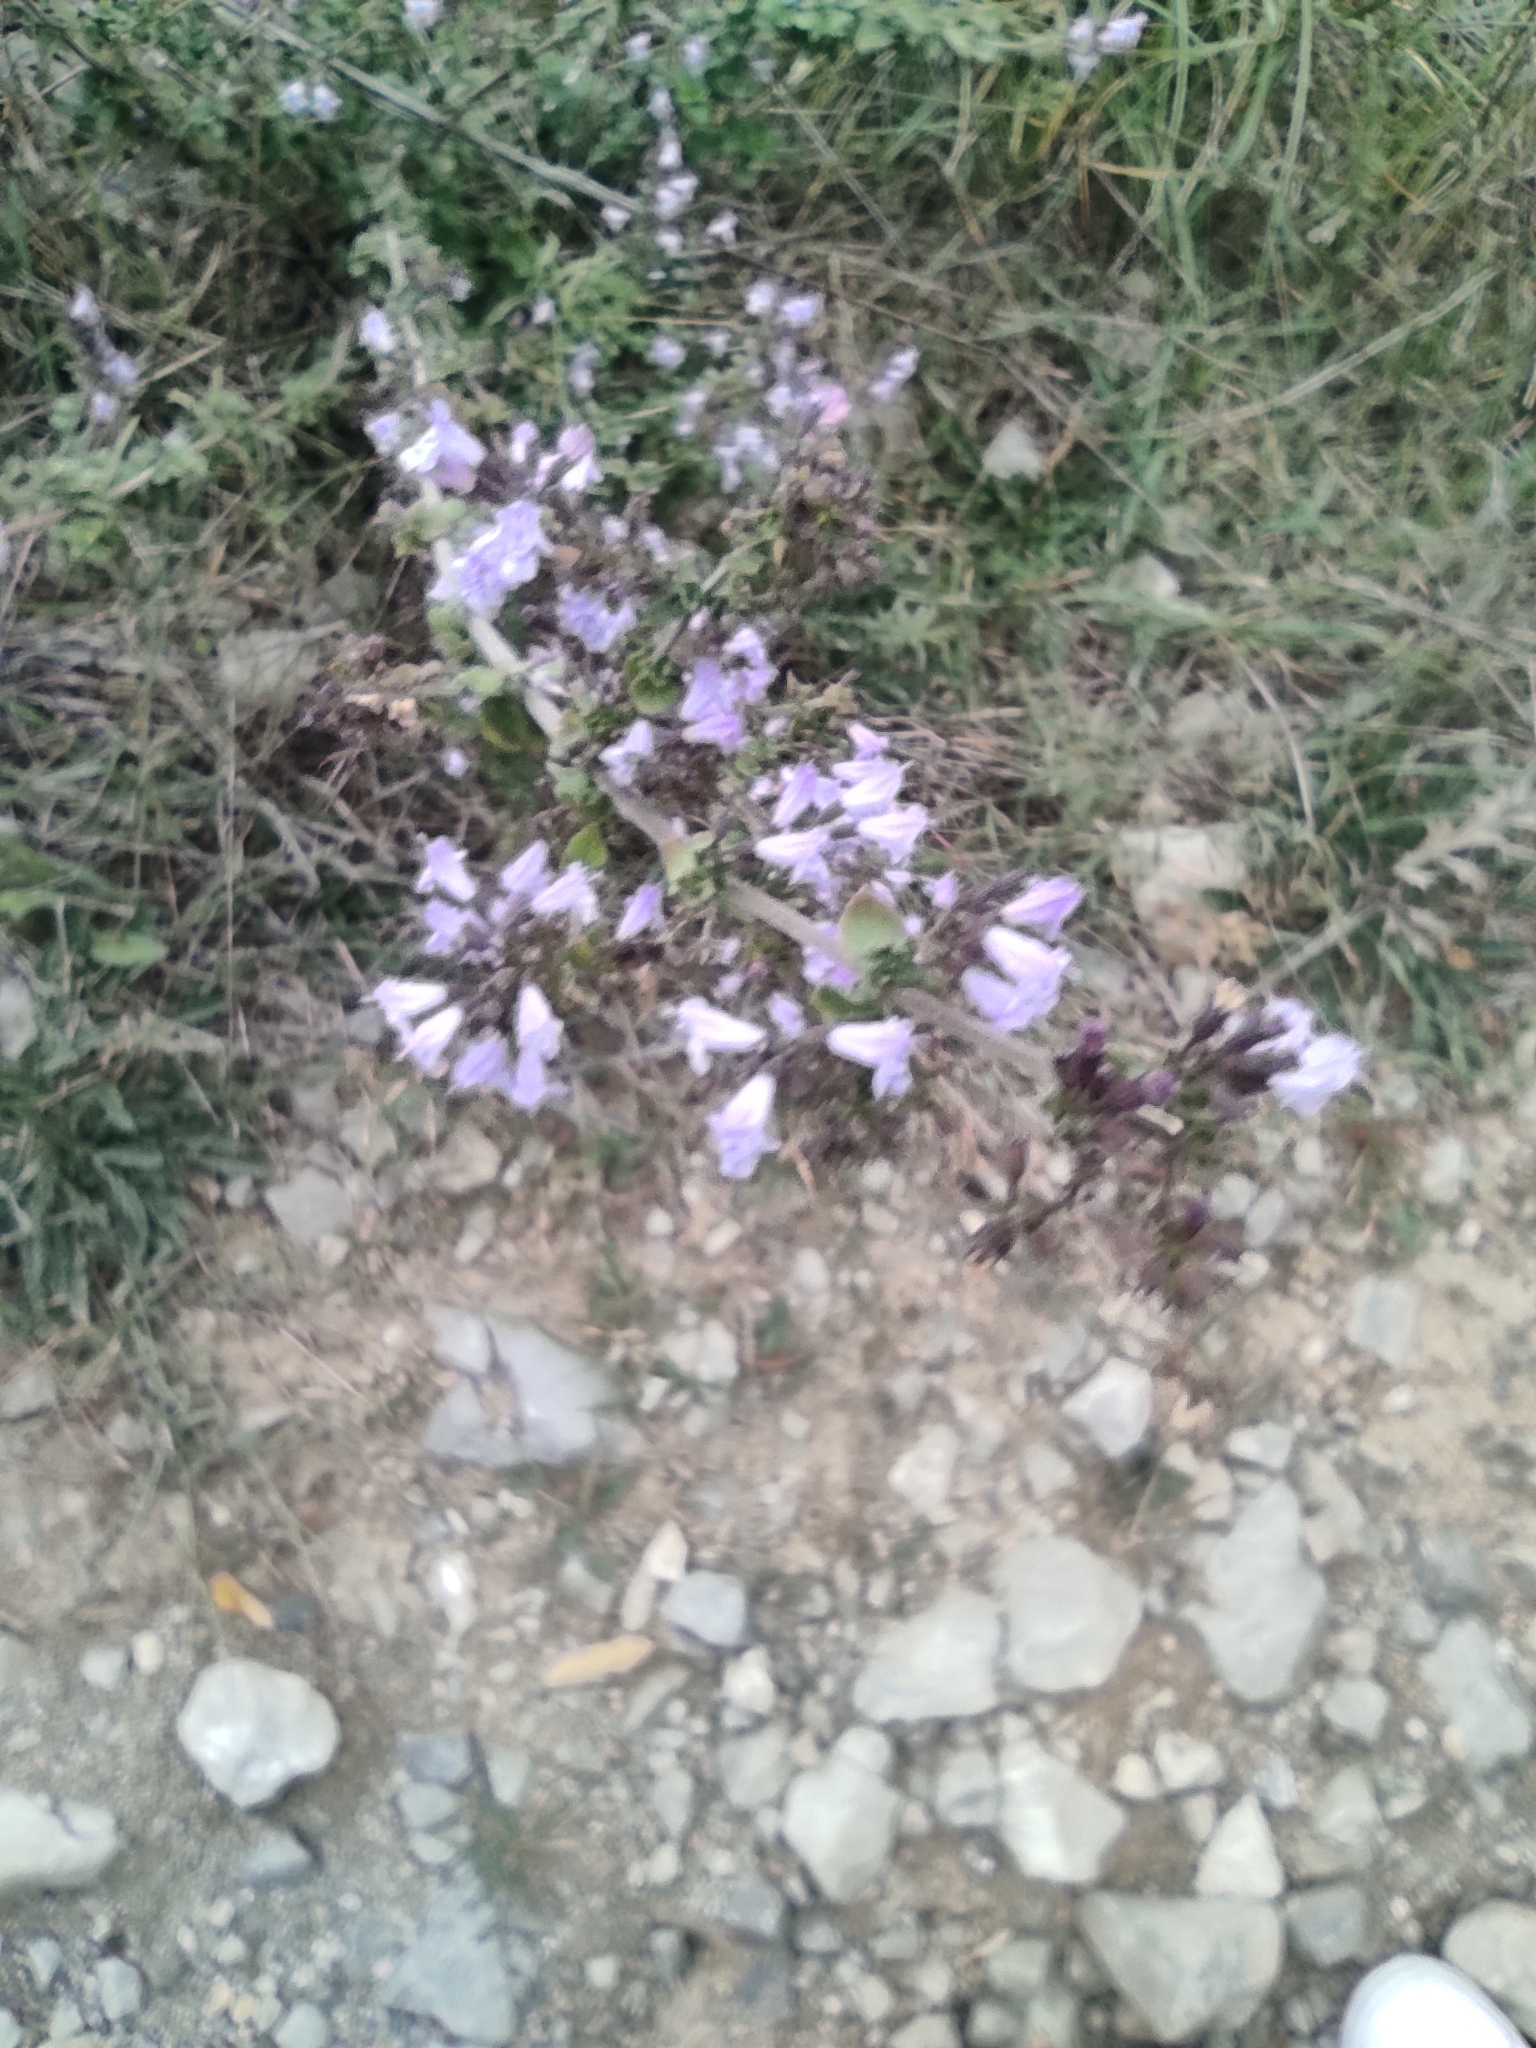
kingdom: Plantae
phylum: Tracheophyta
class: Magnoliopsida
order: Lamiales
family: Lamiaceae
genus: Clinopodium
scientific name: Clinopodium nepeta
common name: Lesser calamint
